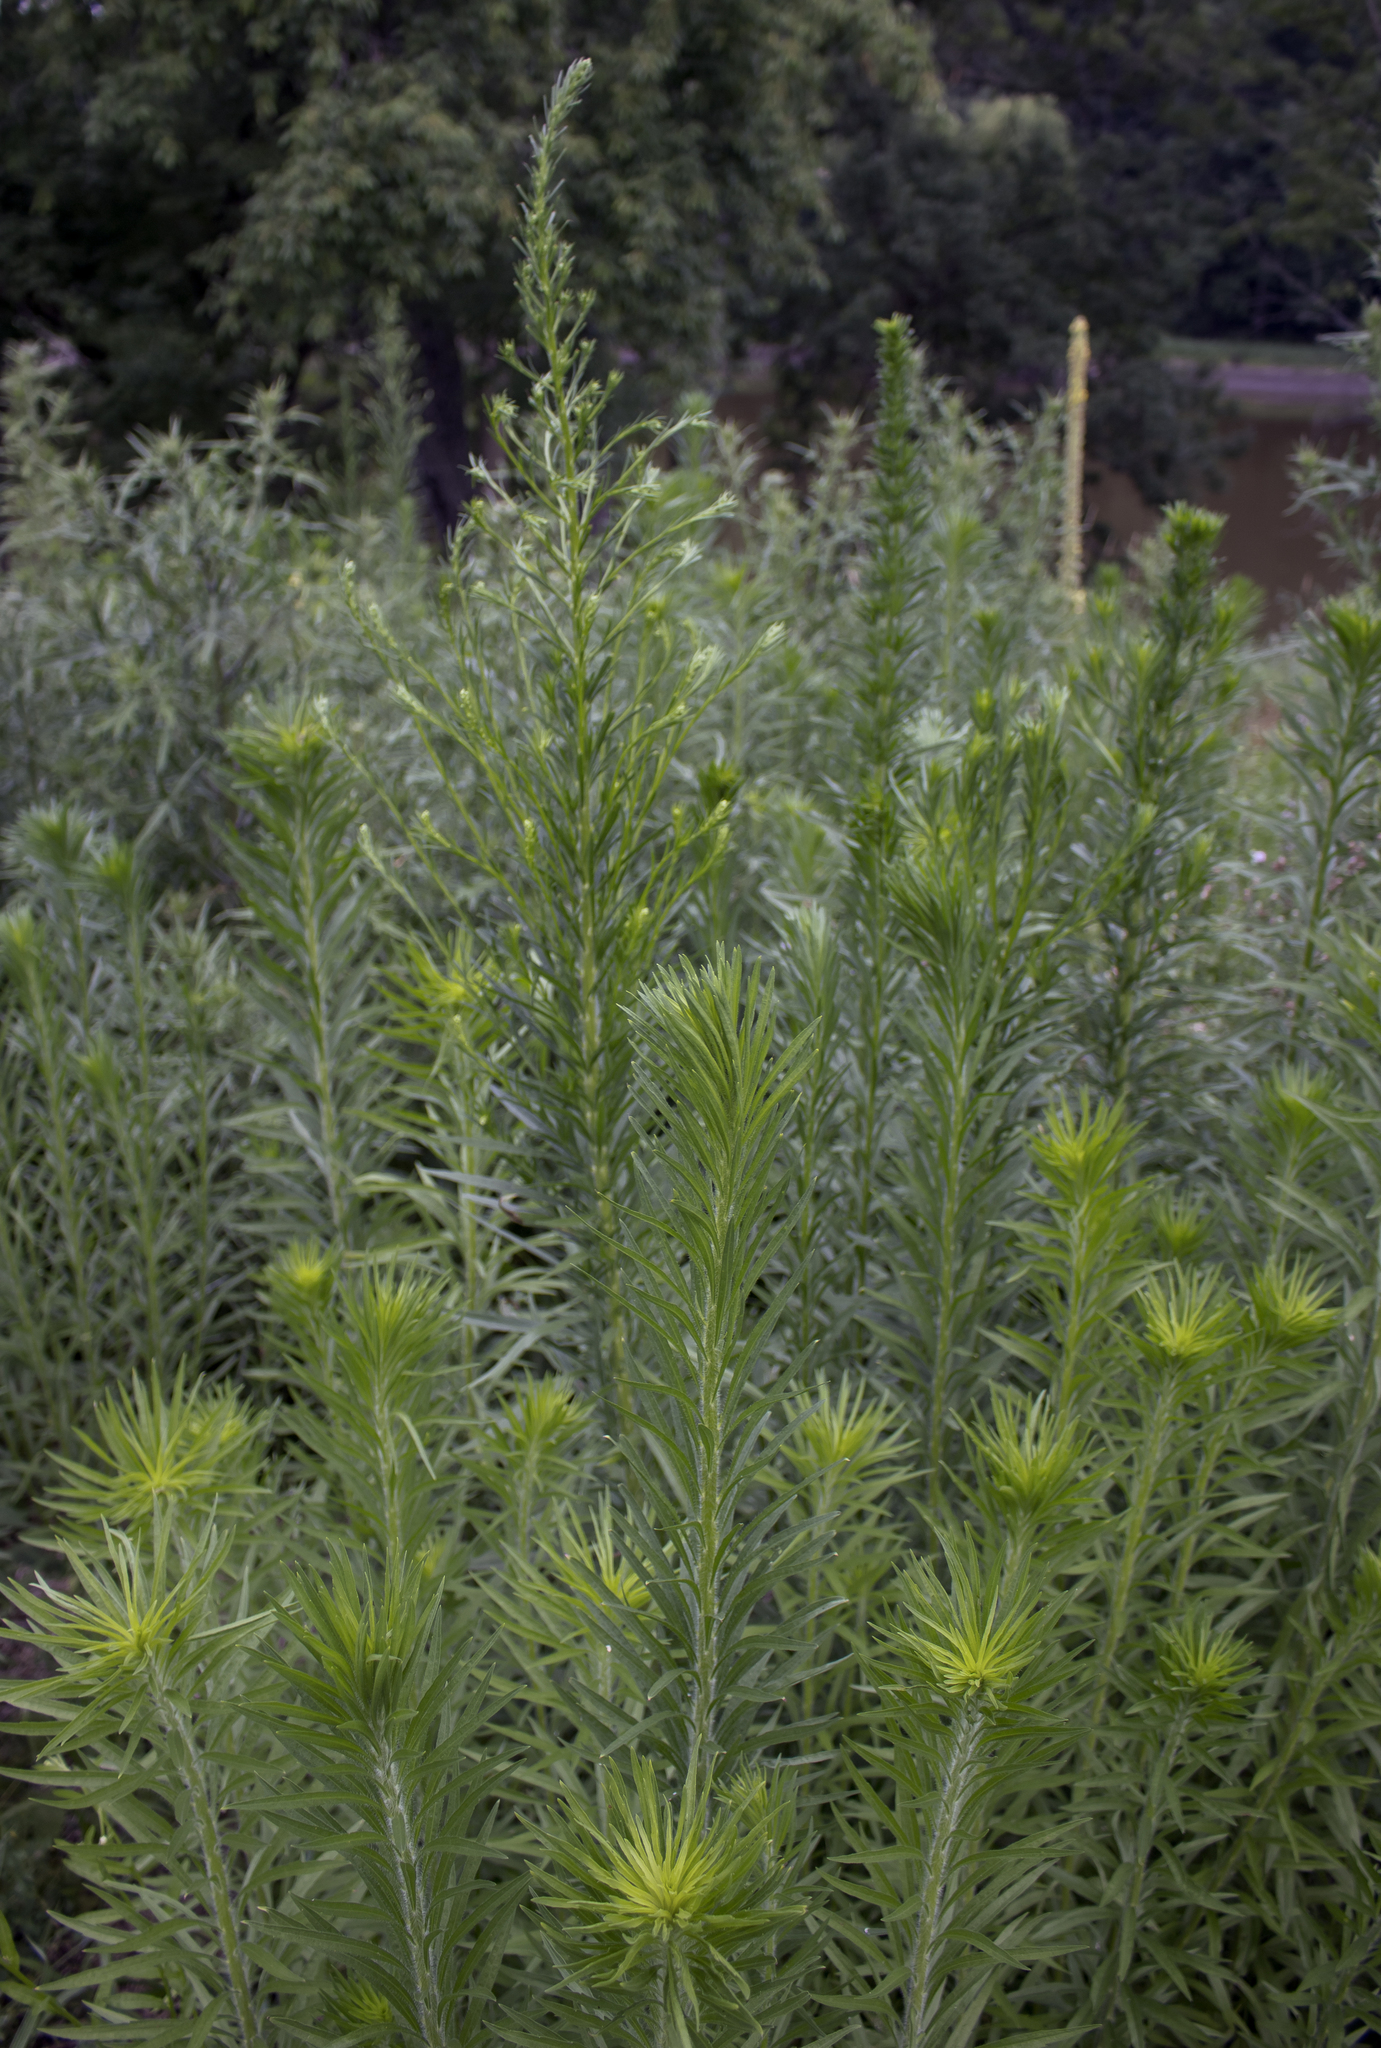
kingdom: Plantae
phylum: Tracheophyta
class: Magnoliopsida
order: Asterales
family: Asteraceae
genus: Erigeron
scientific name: Erigeron canadensis
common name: Canadian fleabane
